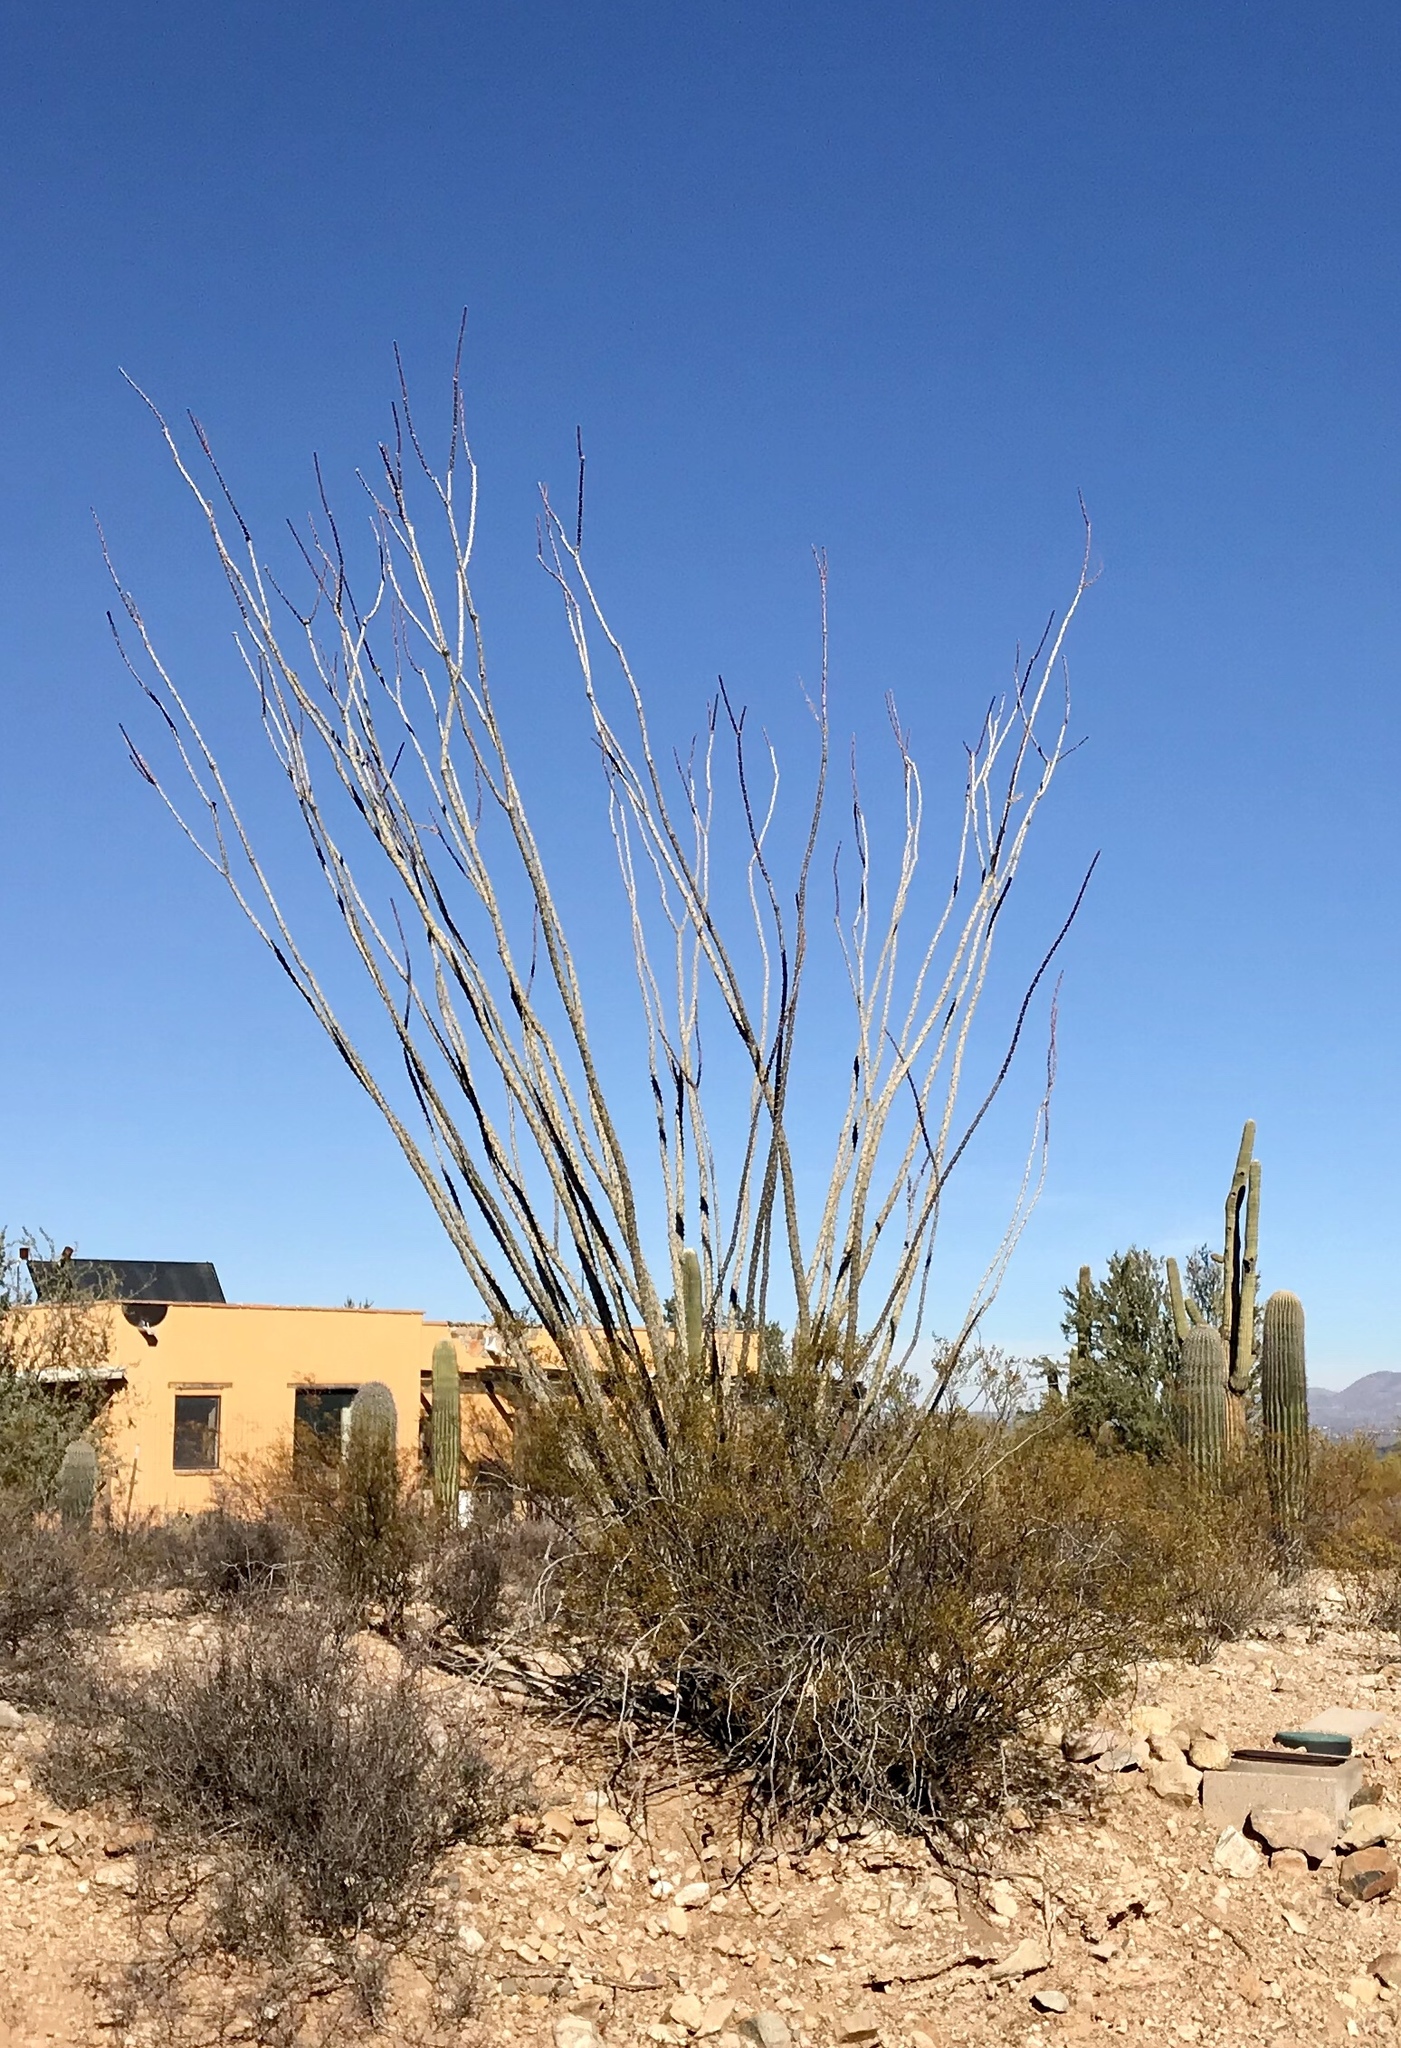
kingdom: Plantae
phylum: Tracheophyta
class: Magnoliopsida
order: Ericales
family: Fouquieriaceae
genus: Fouquieria
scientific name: Fouquieria splendens
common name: Vine-cactus
